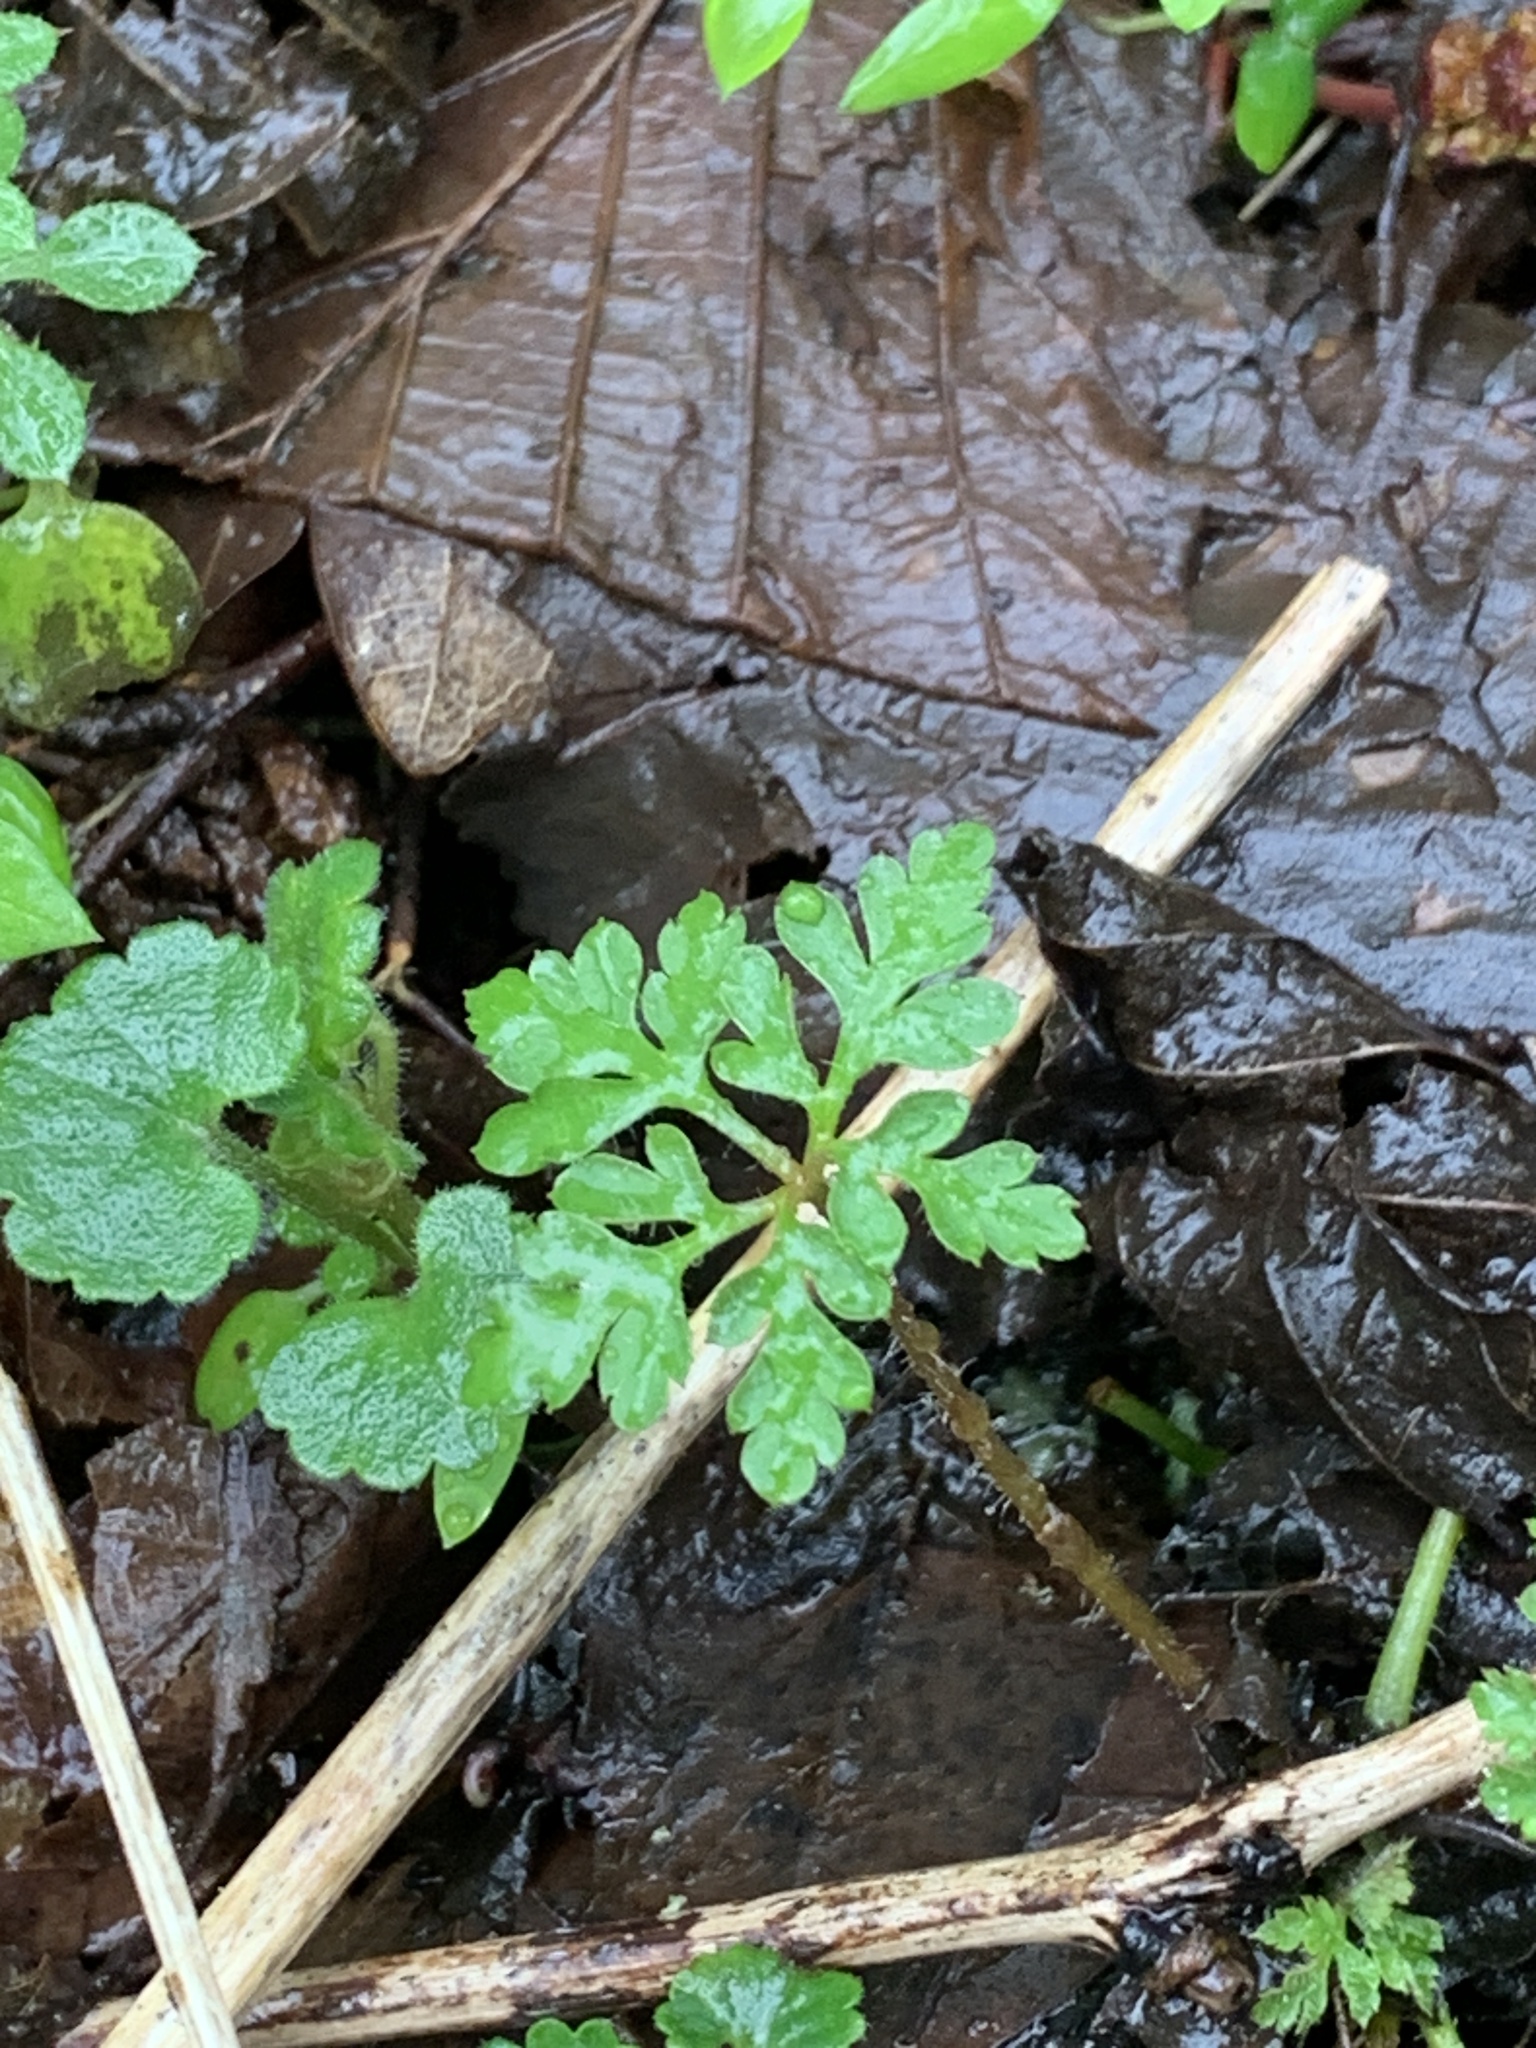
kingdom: Plantae
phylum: Tracheophyta
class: Magnoliopsida
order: Geraniales
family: Geraniaceae
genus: Geranium
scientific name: Geranium robertianum
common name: Herb-robert
